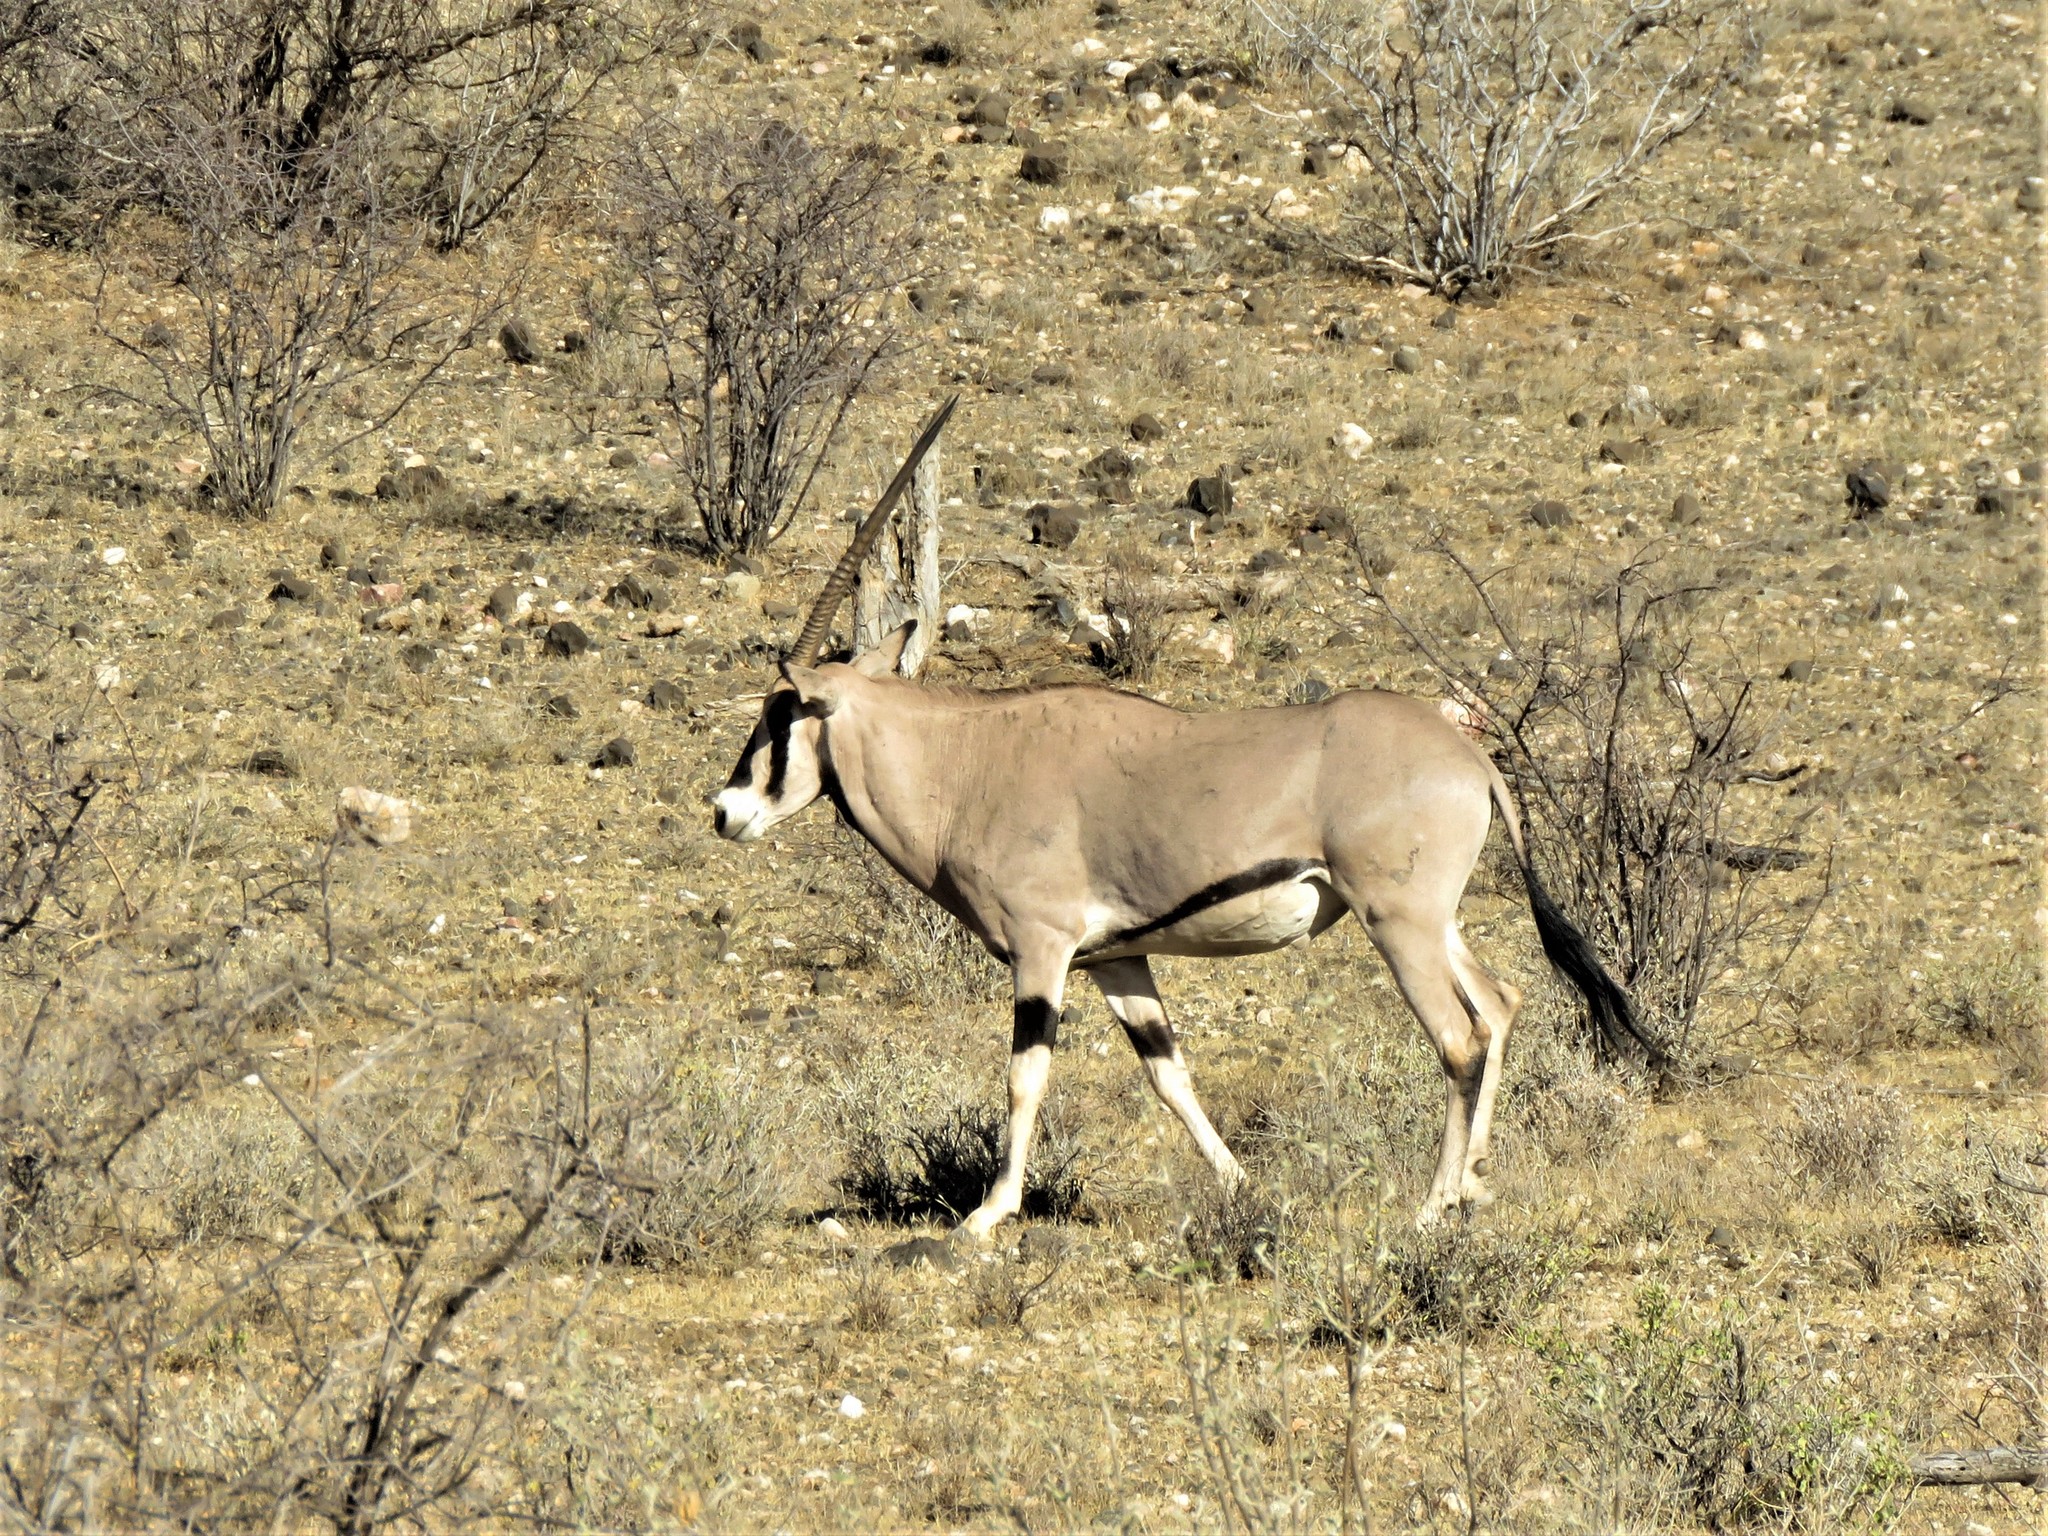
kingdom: Animalia
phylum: Chordata
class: Mammalia
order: Artiodactyla
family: Bovidae
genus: Oryx
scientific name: Oryx beisa
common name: Beisa
